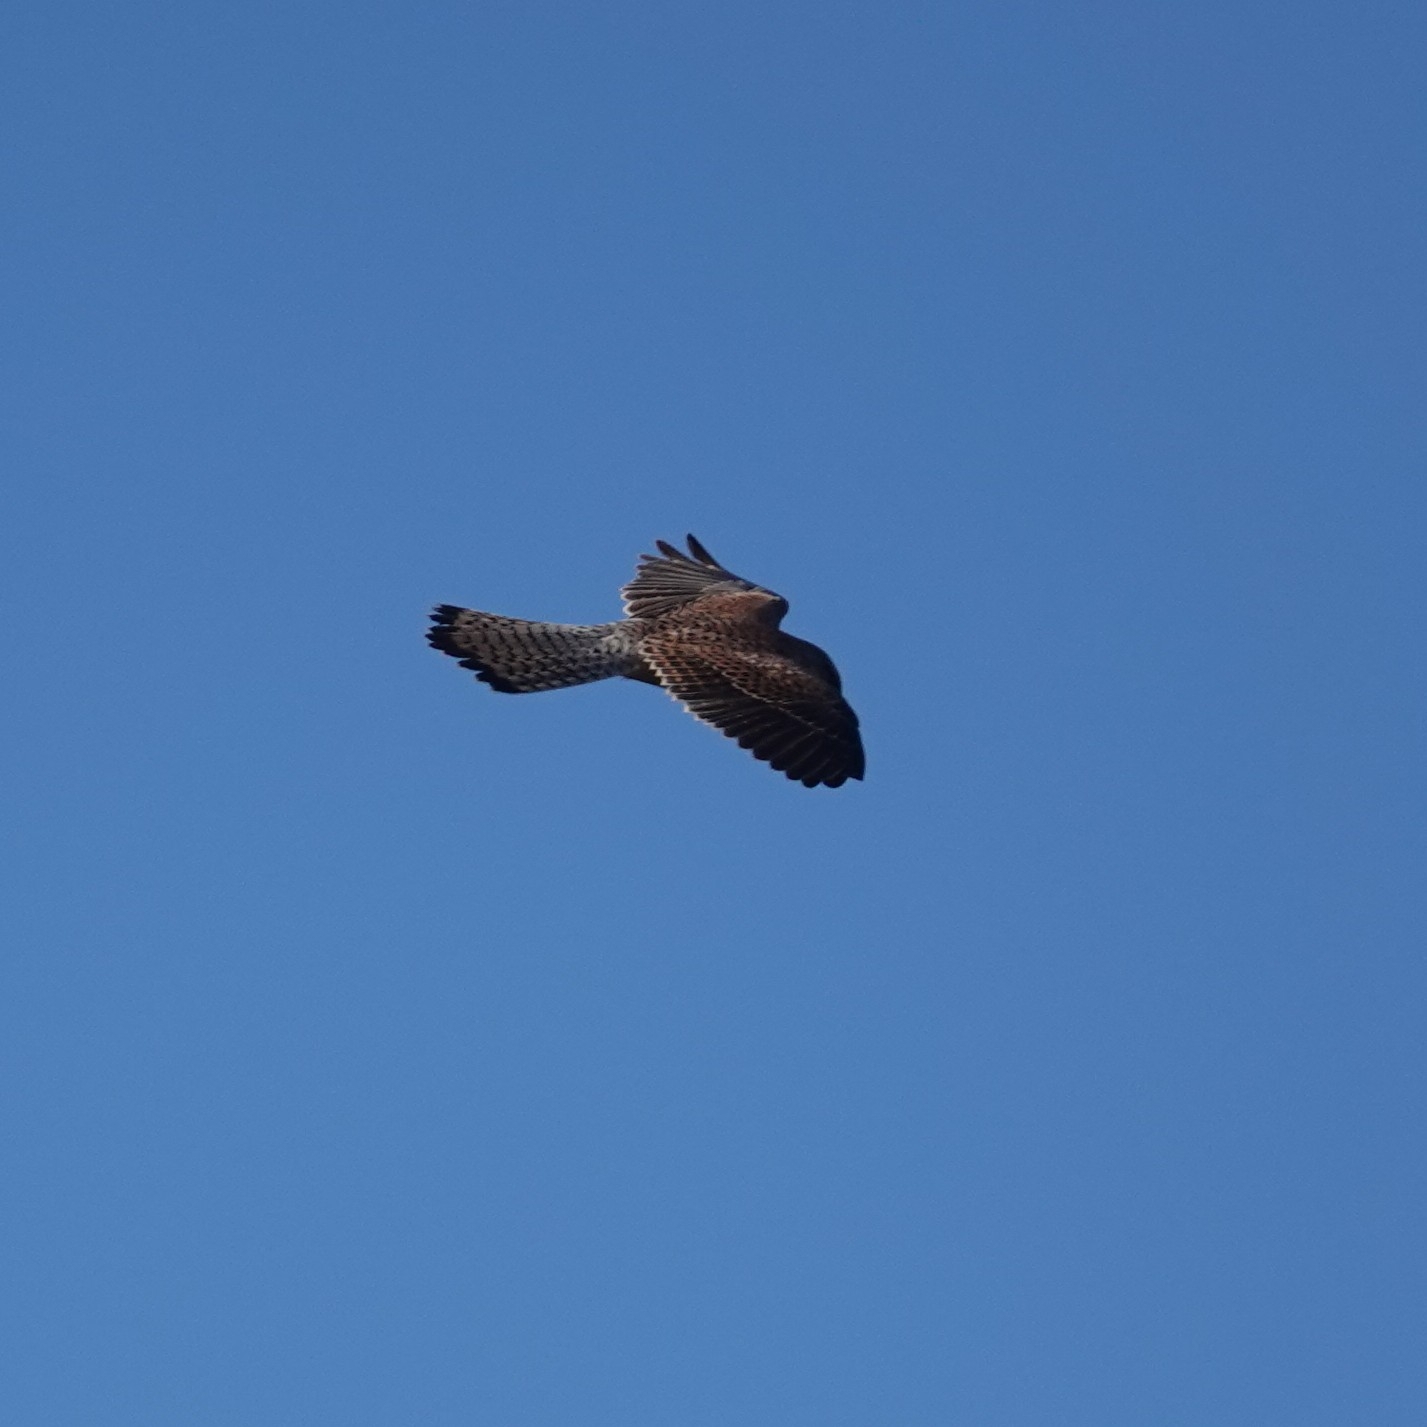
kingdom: Animalia
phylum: Chordata
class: Aves
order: Falconiformes
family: Falconidae
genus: Falco
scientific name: Falco tinnunculus
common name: Common kestrel
